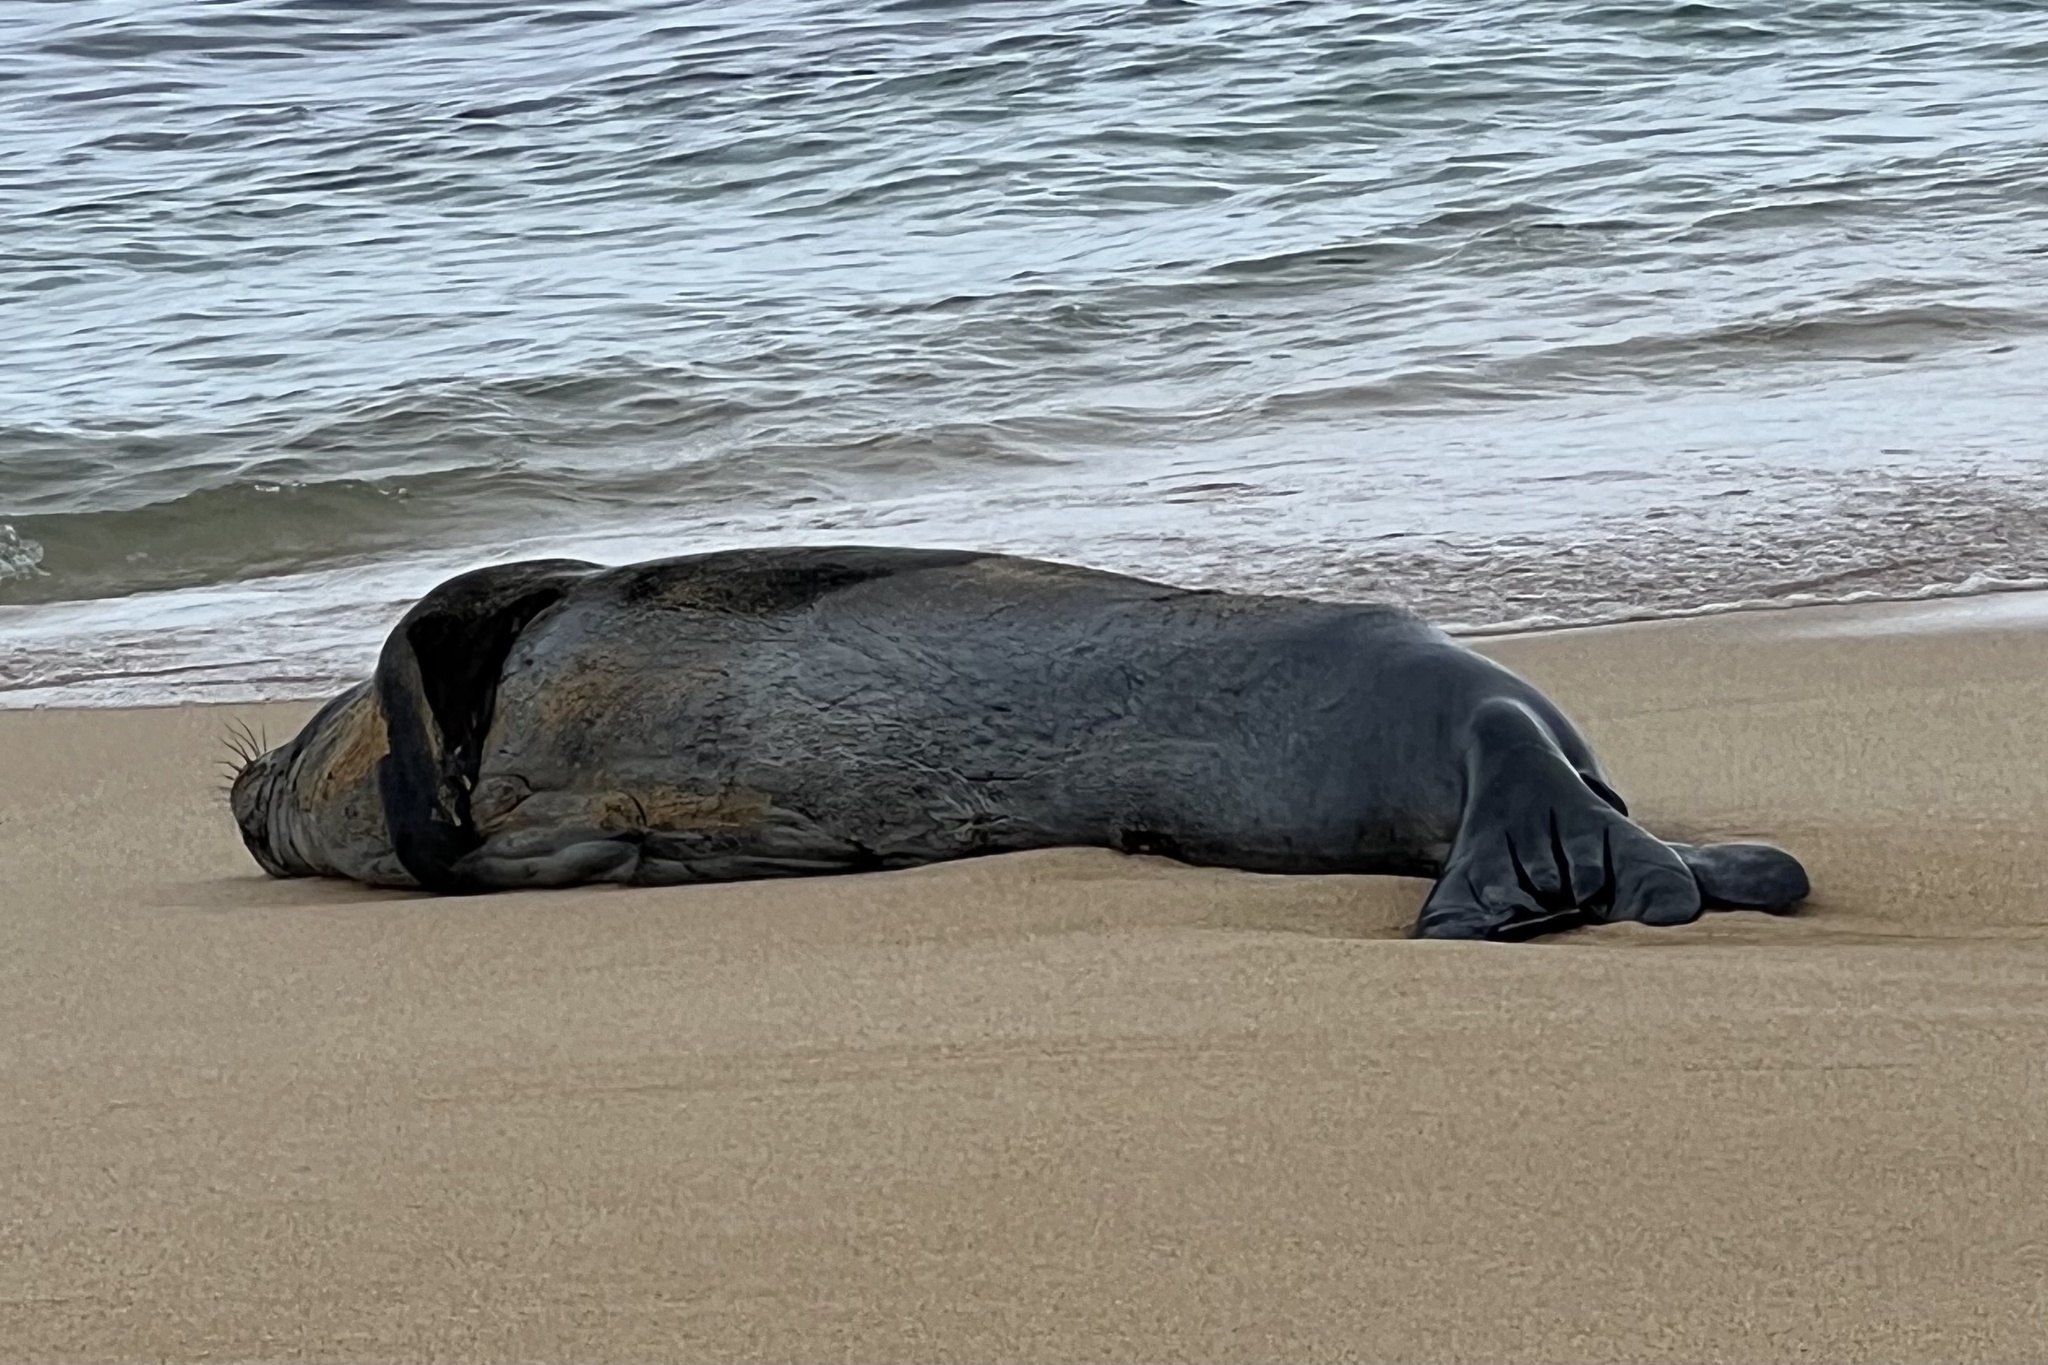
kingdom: Animalia
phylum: Chordata
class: Mammalia
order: Carnivora
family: Phocidae
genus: Neomonachus
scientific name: Neomonachus schauinslandi
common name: Hawaiian monk seal
